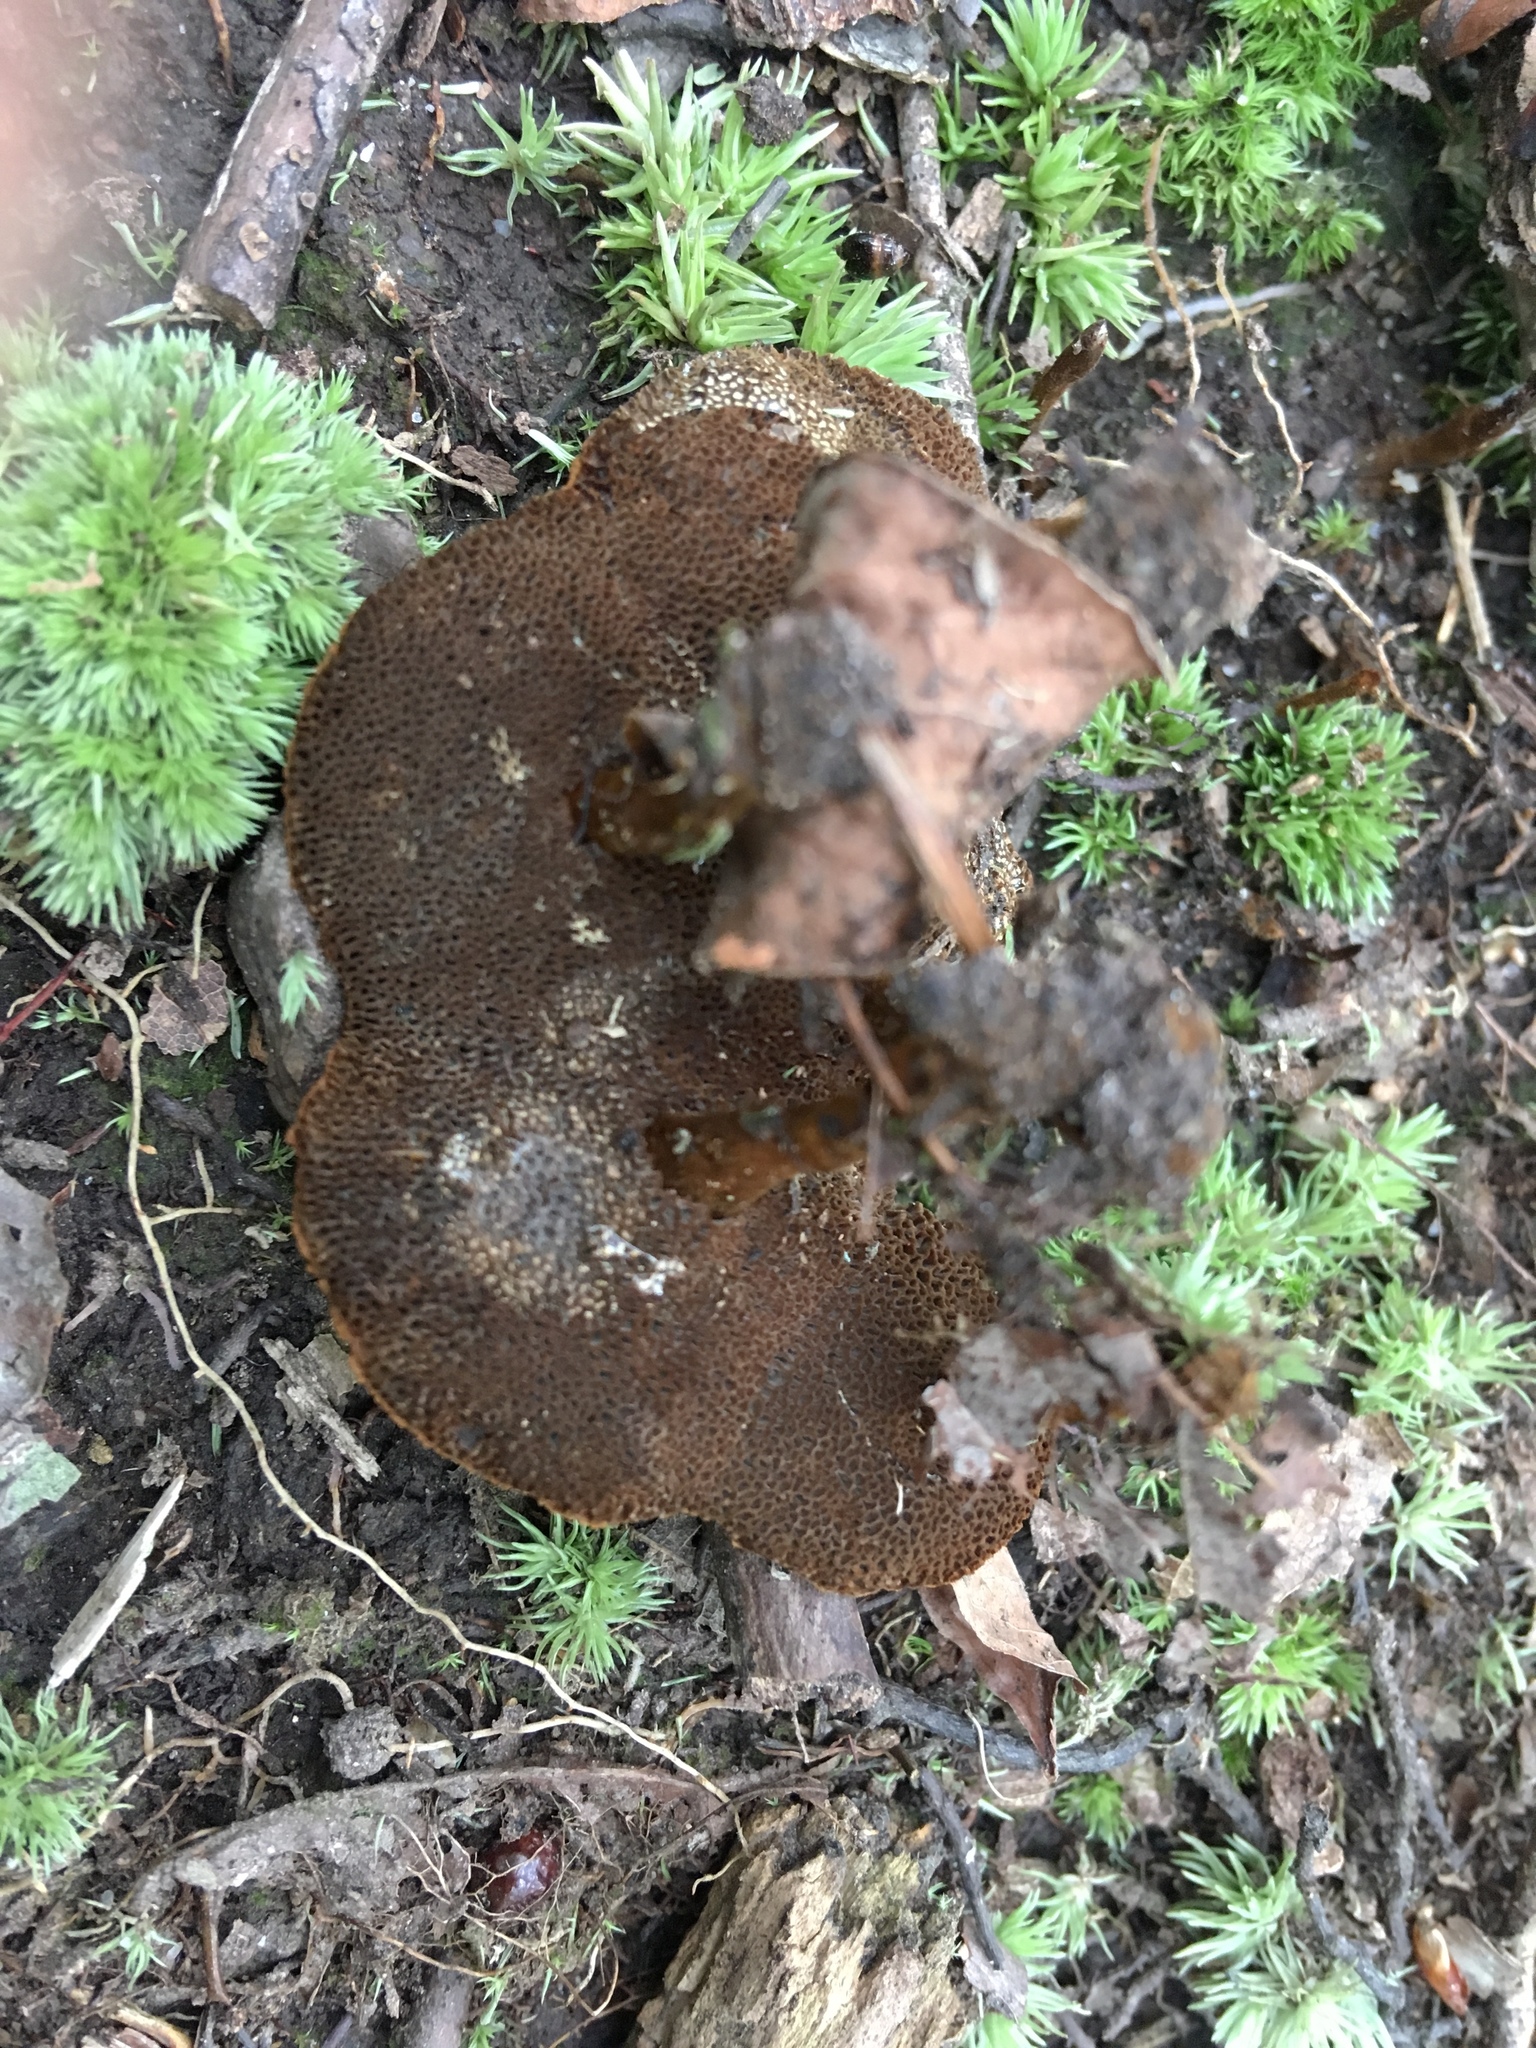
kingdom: Fungi
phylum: Basidiomycota
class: Agaricomycetes
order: Hymenochaetales
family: Hymenochaetaceae
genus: Coltricia
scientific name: Coltricia cinnamomea
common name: Shiny cinnamon polypore
